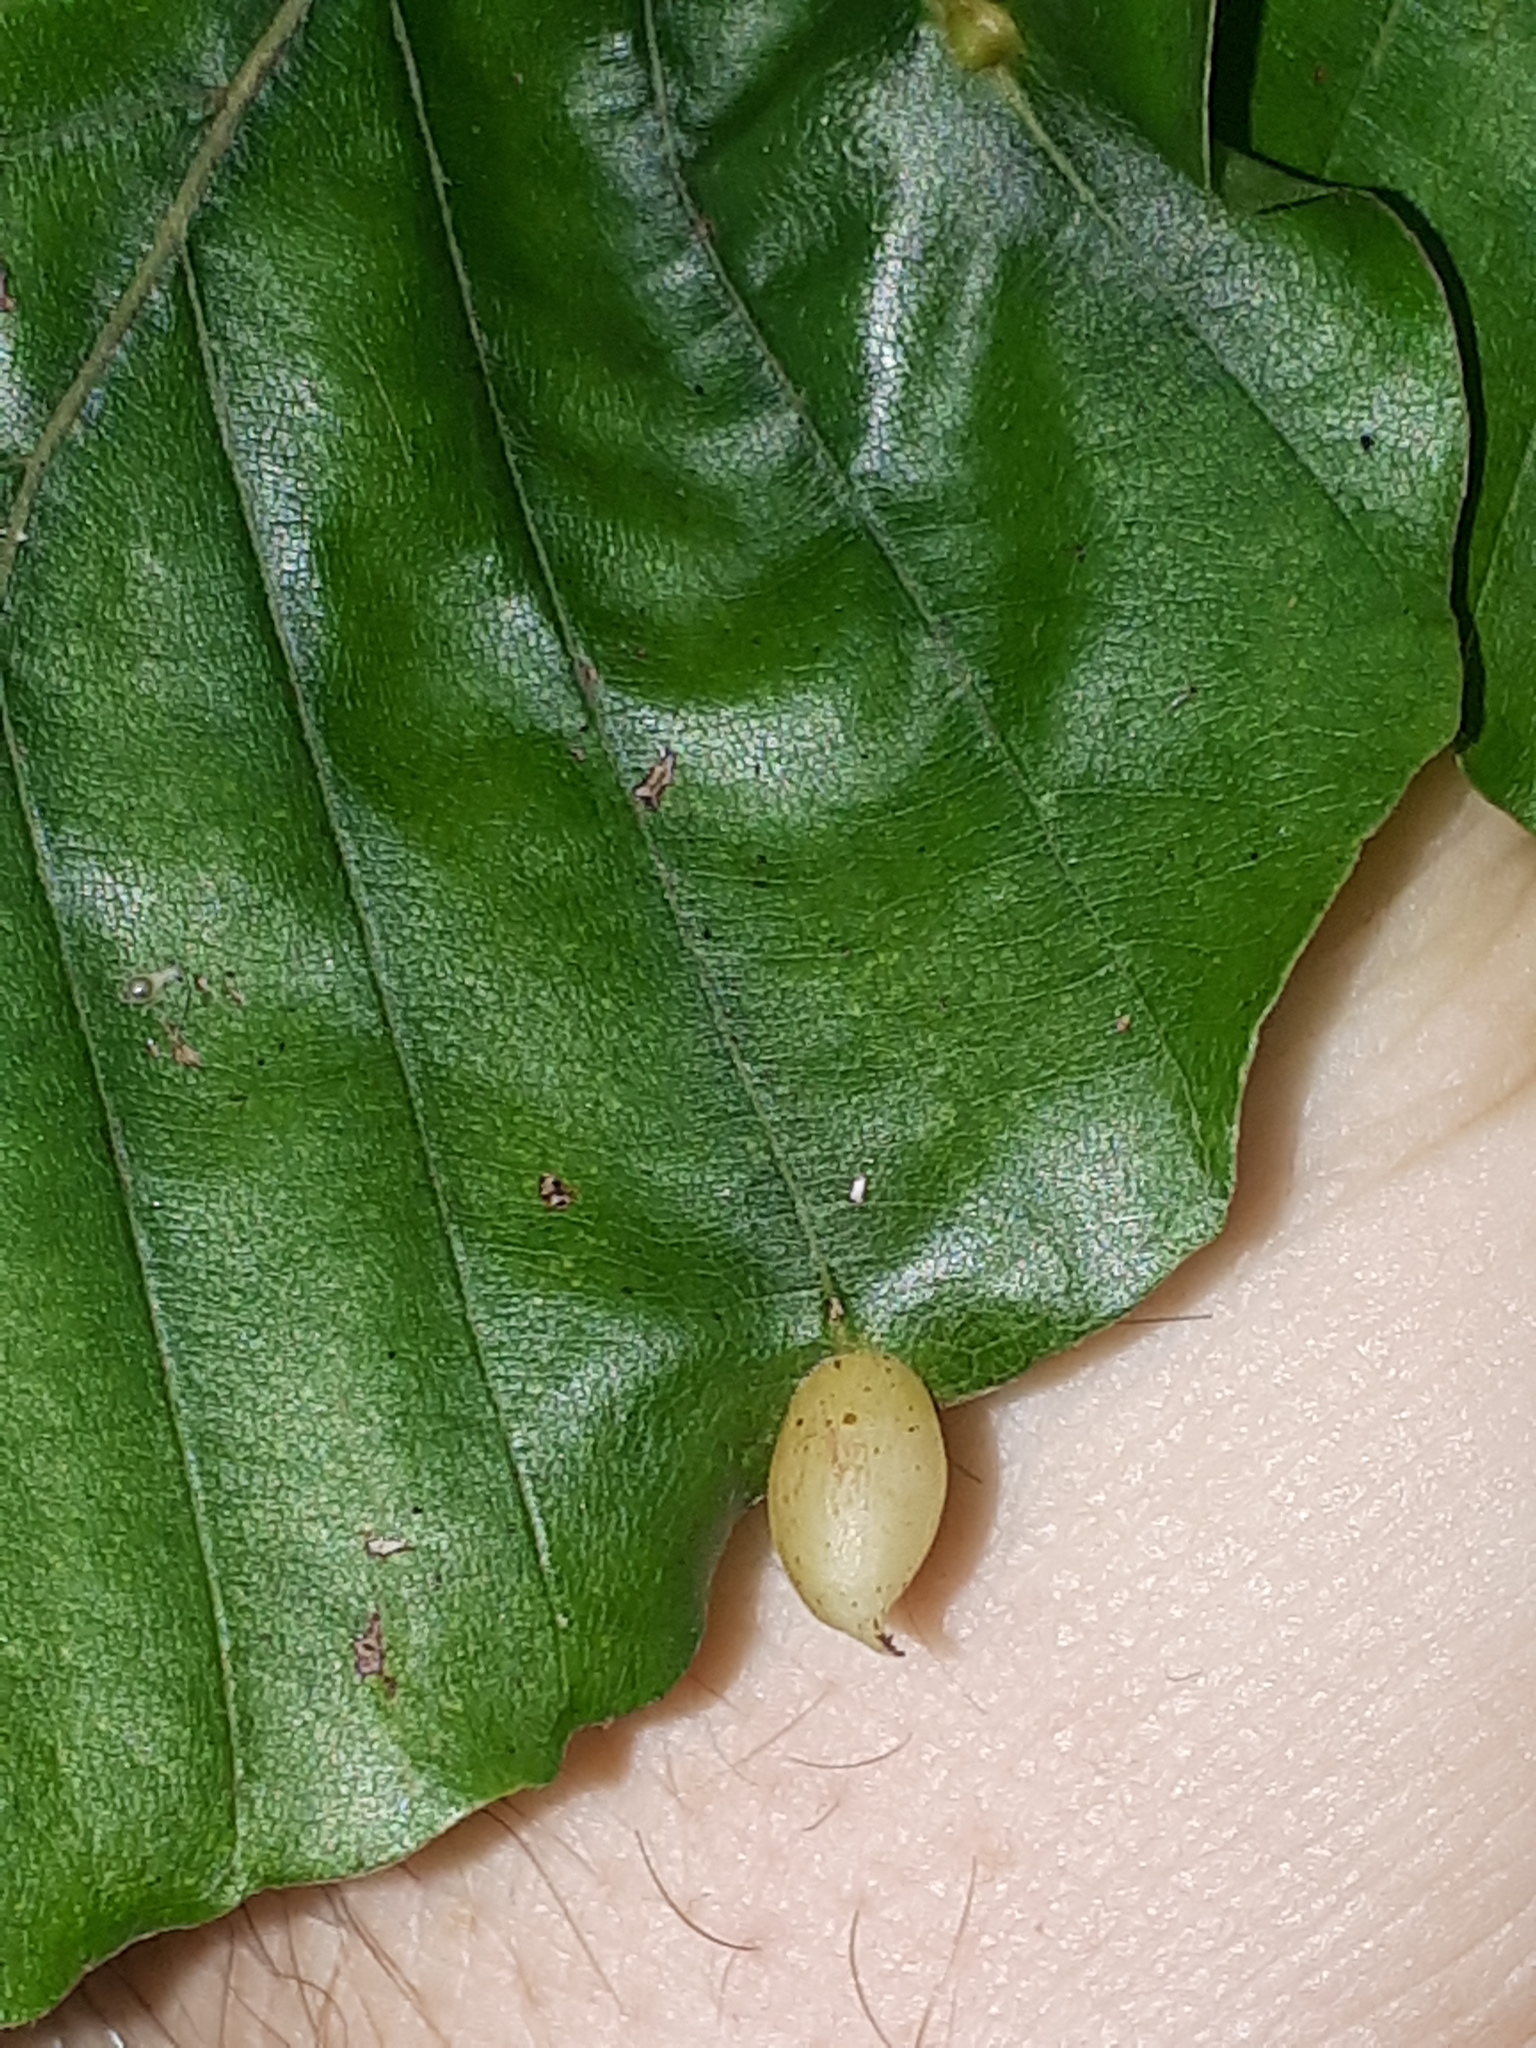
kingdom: Animalia
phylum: Arthropoda
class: Insecta
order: Diptera
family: Cecidomyiidae
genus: Mikiola
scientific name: Mikiola fagi
